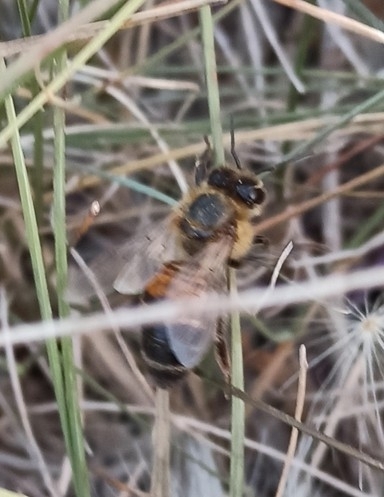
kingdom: Animalia
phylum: Arthropoda
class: Insecta
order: Hymenoptera
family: Apidae
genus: Apis
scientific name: Apis mellifera
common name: Honey bee
